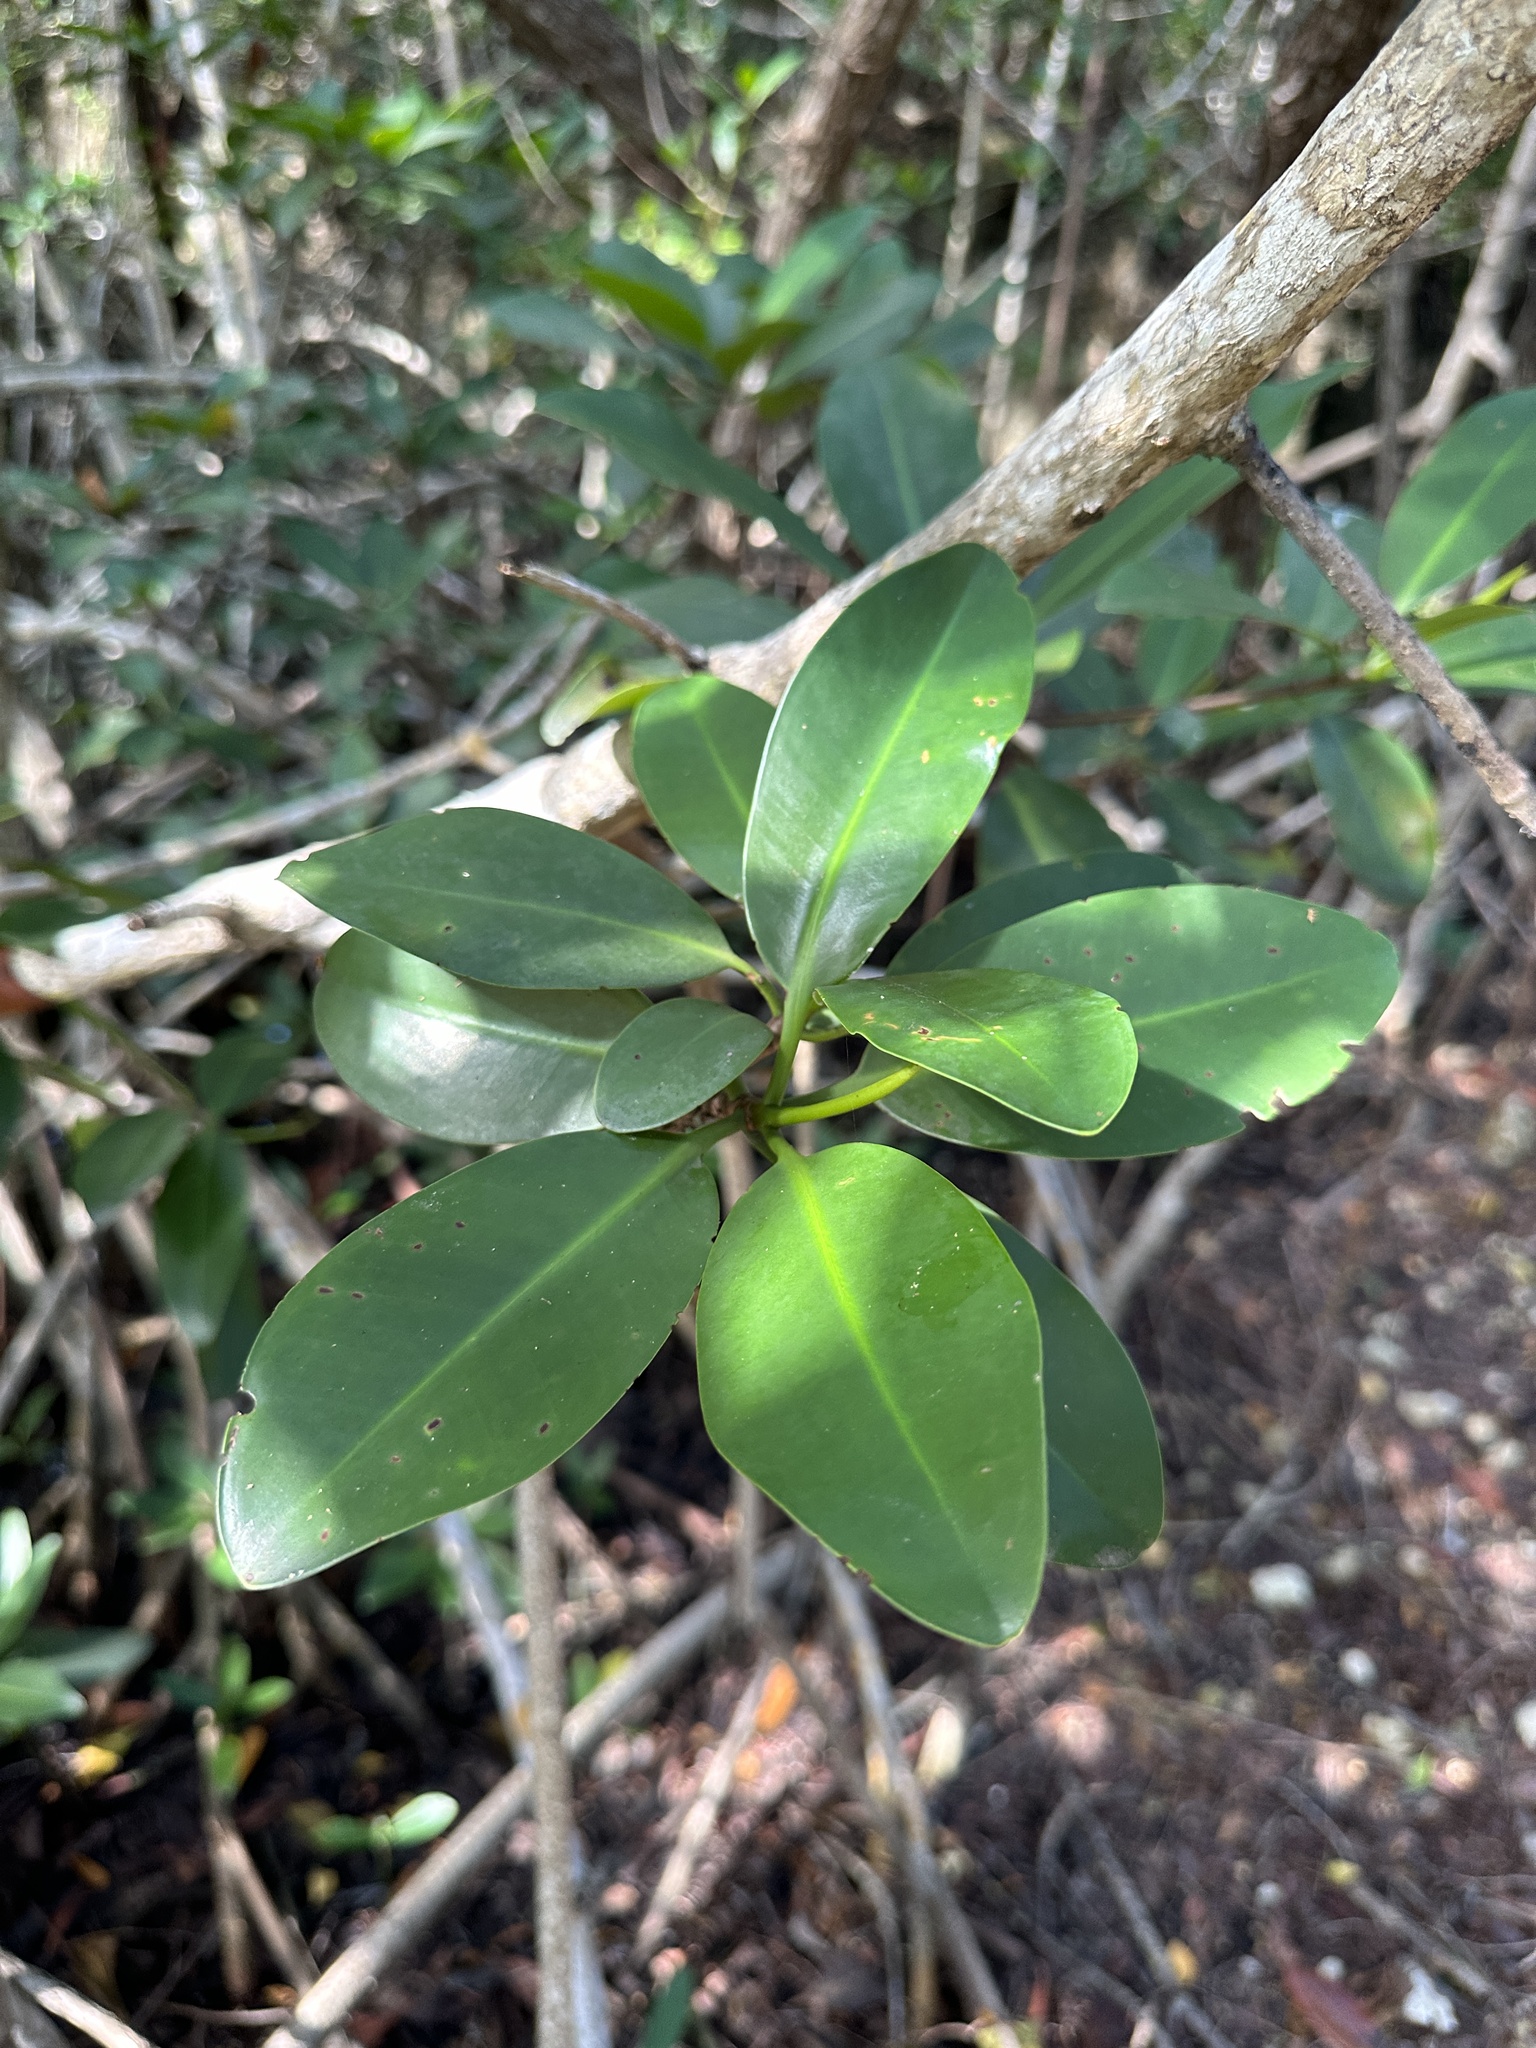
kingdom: Plantae
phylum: Tracheophyta
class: Magnoliopsida
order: Malpighiales
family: Rhizophoraceae
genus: Rhizophora
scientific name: Rhizophora mangle
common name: Red mangrove
